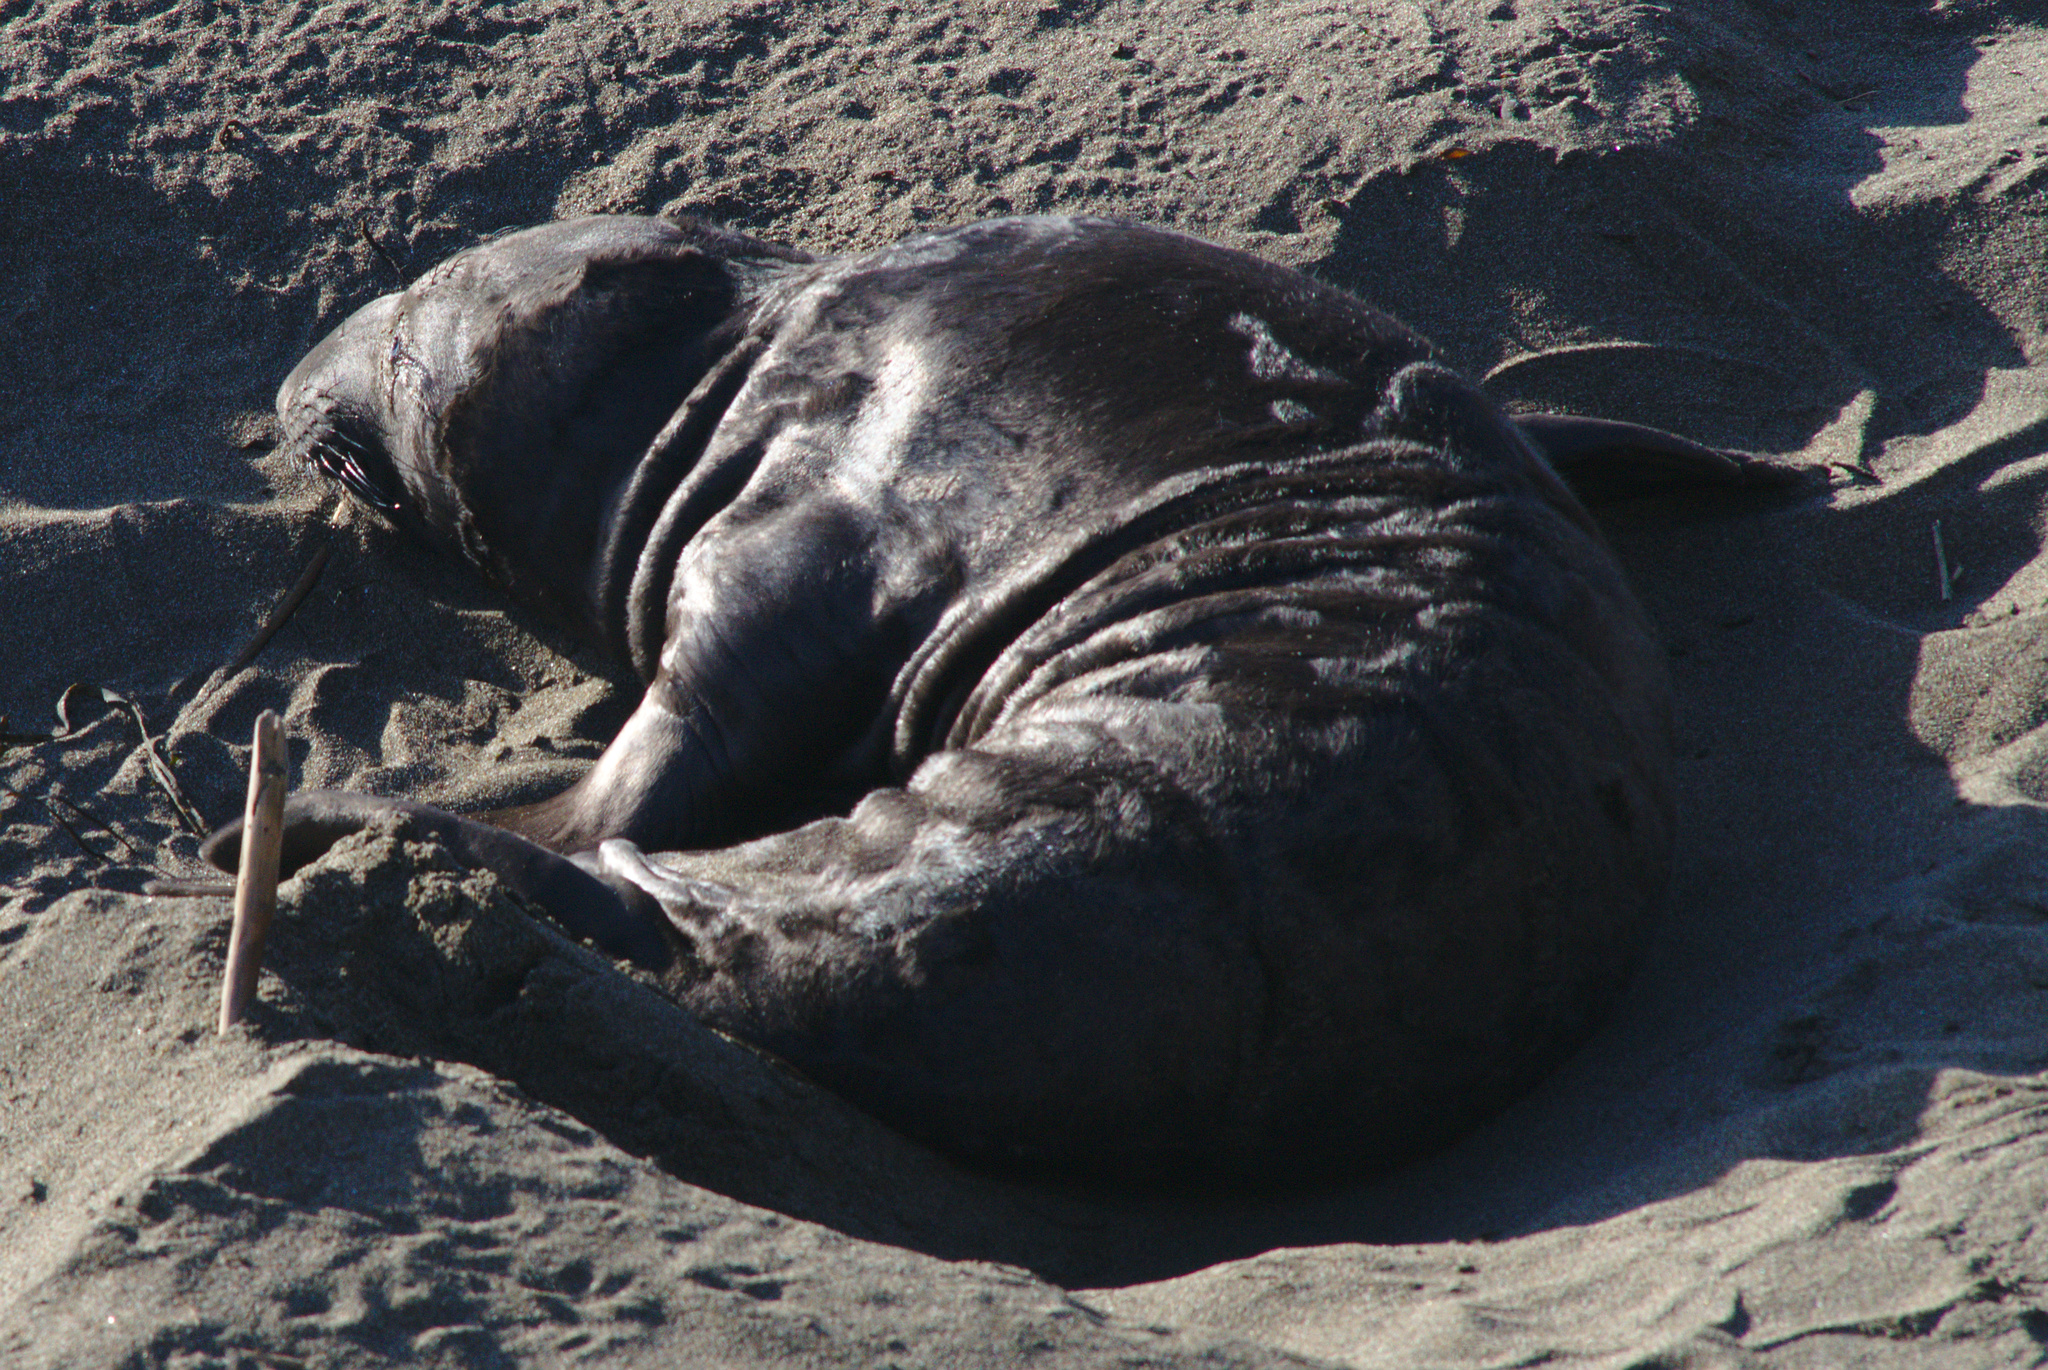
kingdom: Animalia
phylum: Chordata
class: Mammalia
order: Carnivora
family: Phocidae
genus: Mirounga
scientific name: Mirounga angustirostris
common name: Northern elephant seal
